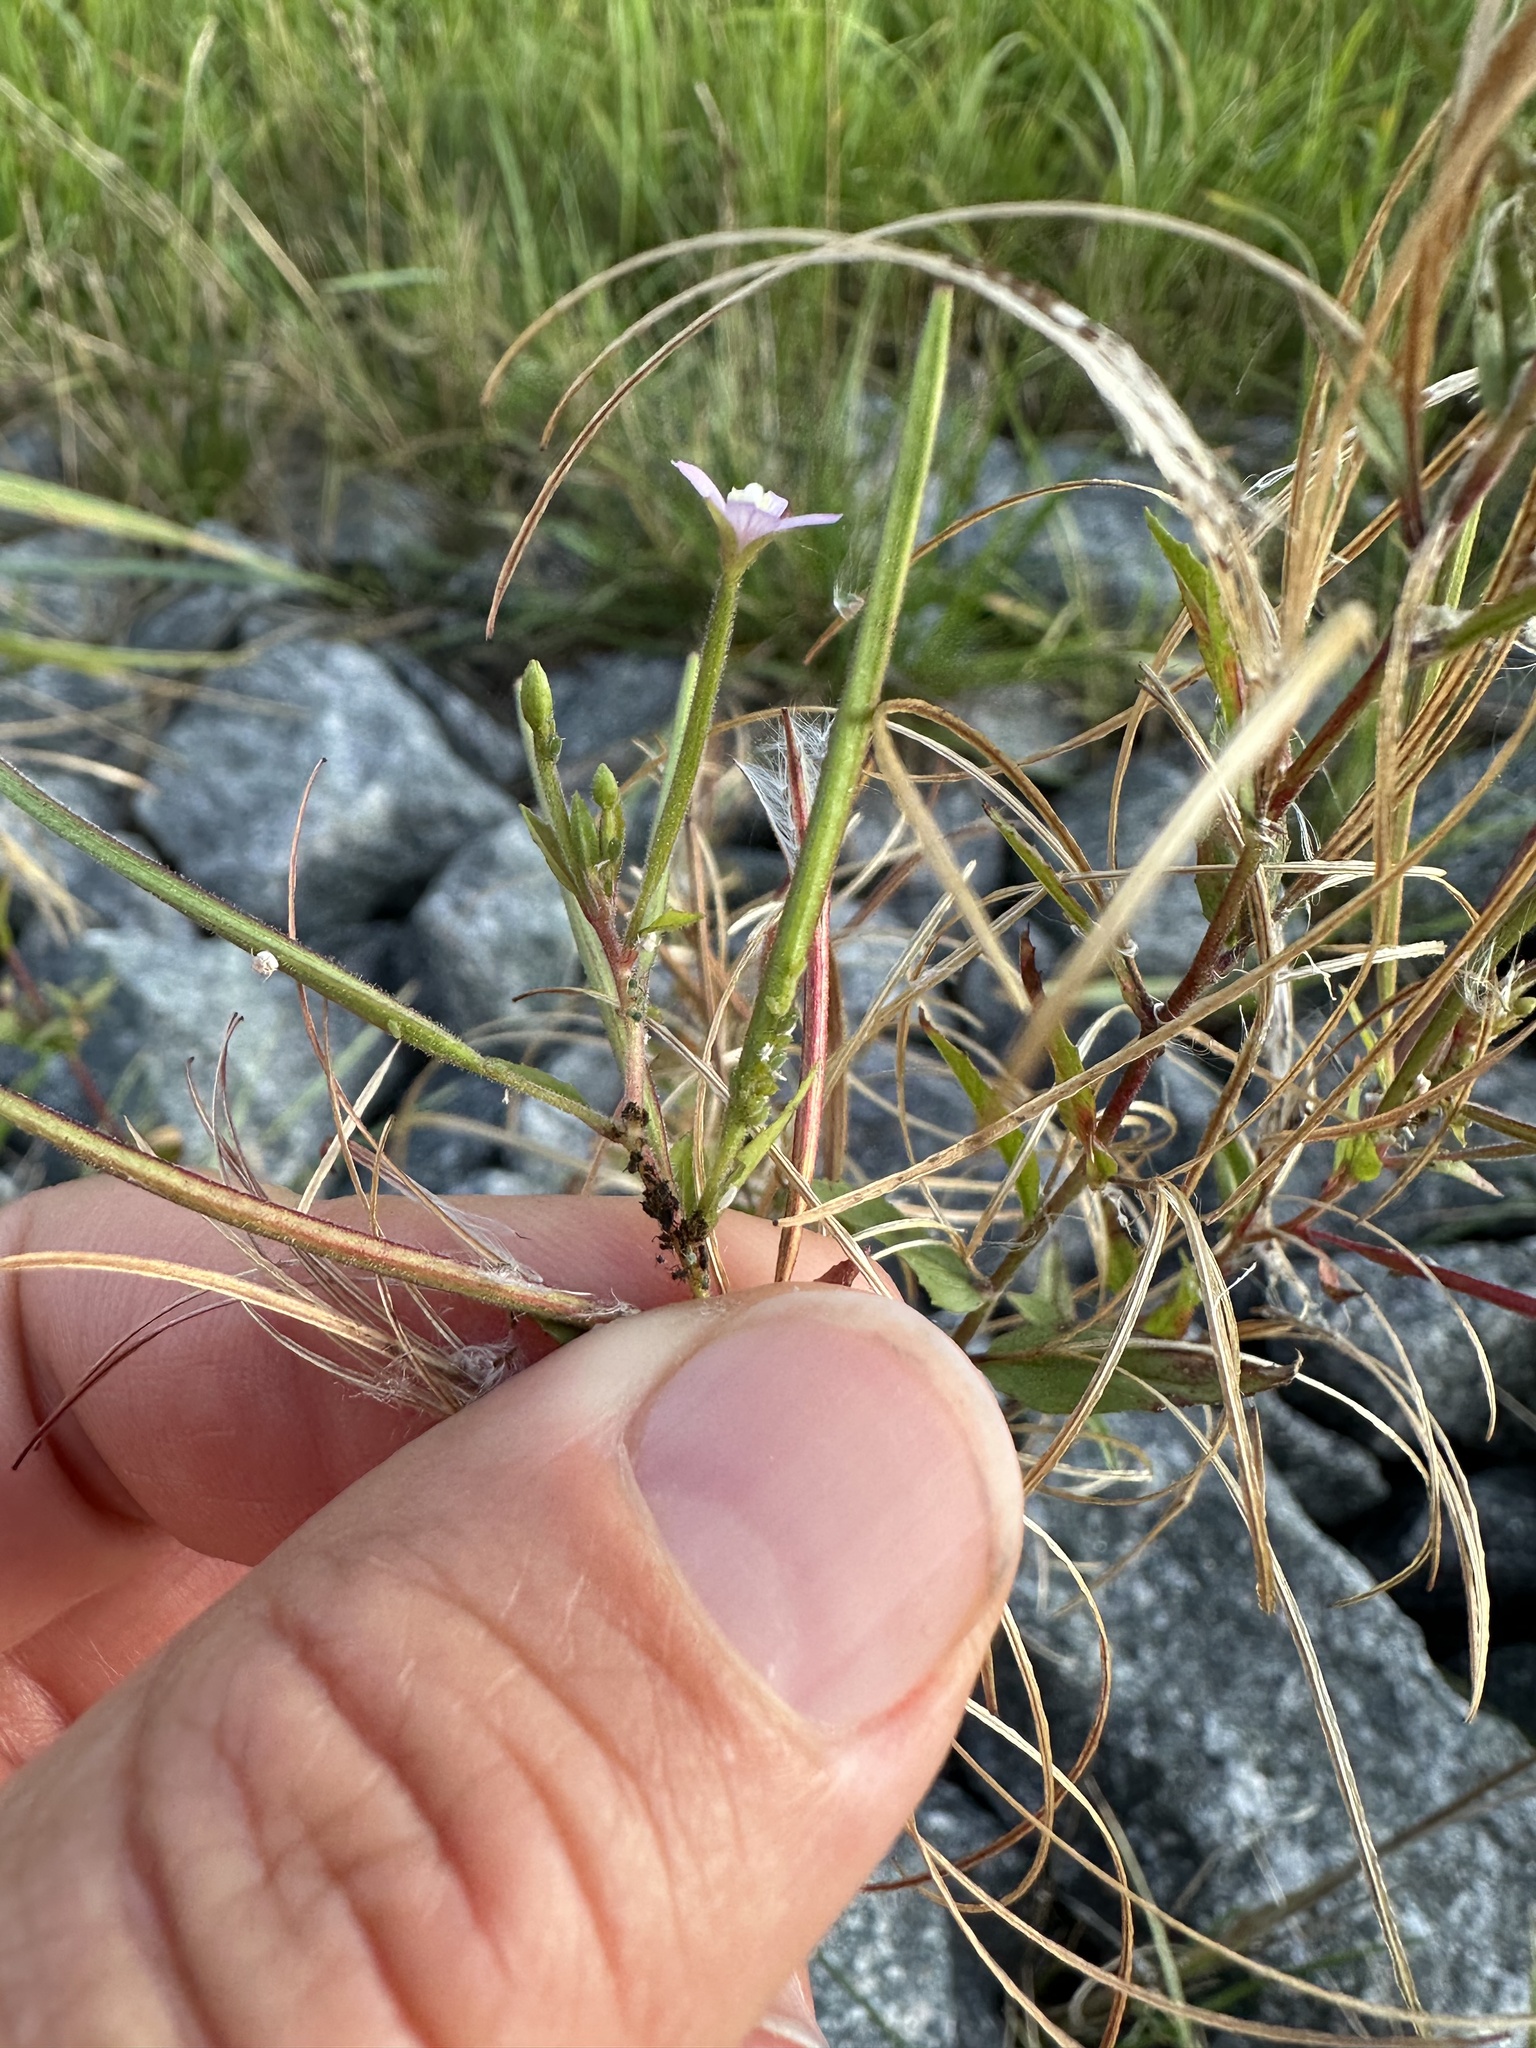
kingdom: Plantae
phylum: Tracheophyta
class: Magnoliopsida
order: Myrtales
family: Onagraceae
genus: Epilobium
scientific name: Epilobium ciliatum
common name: American willowherb
